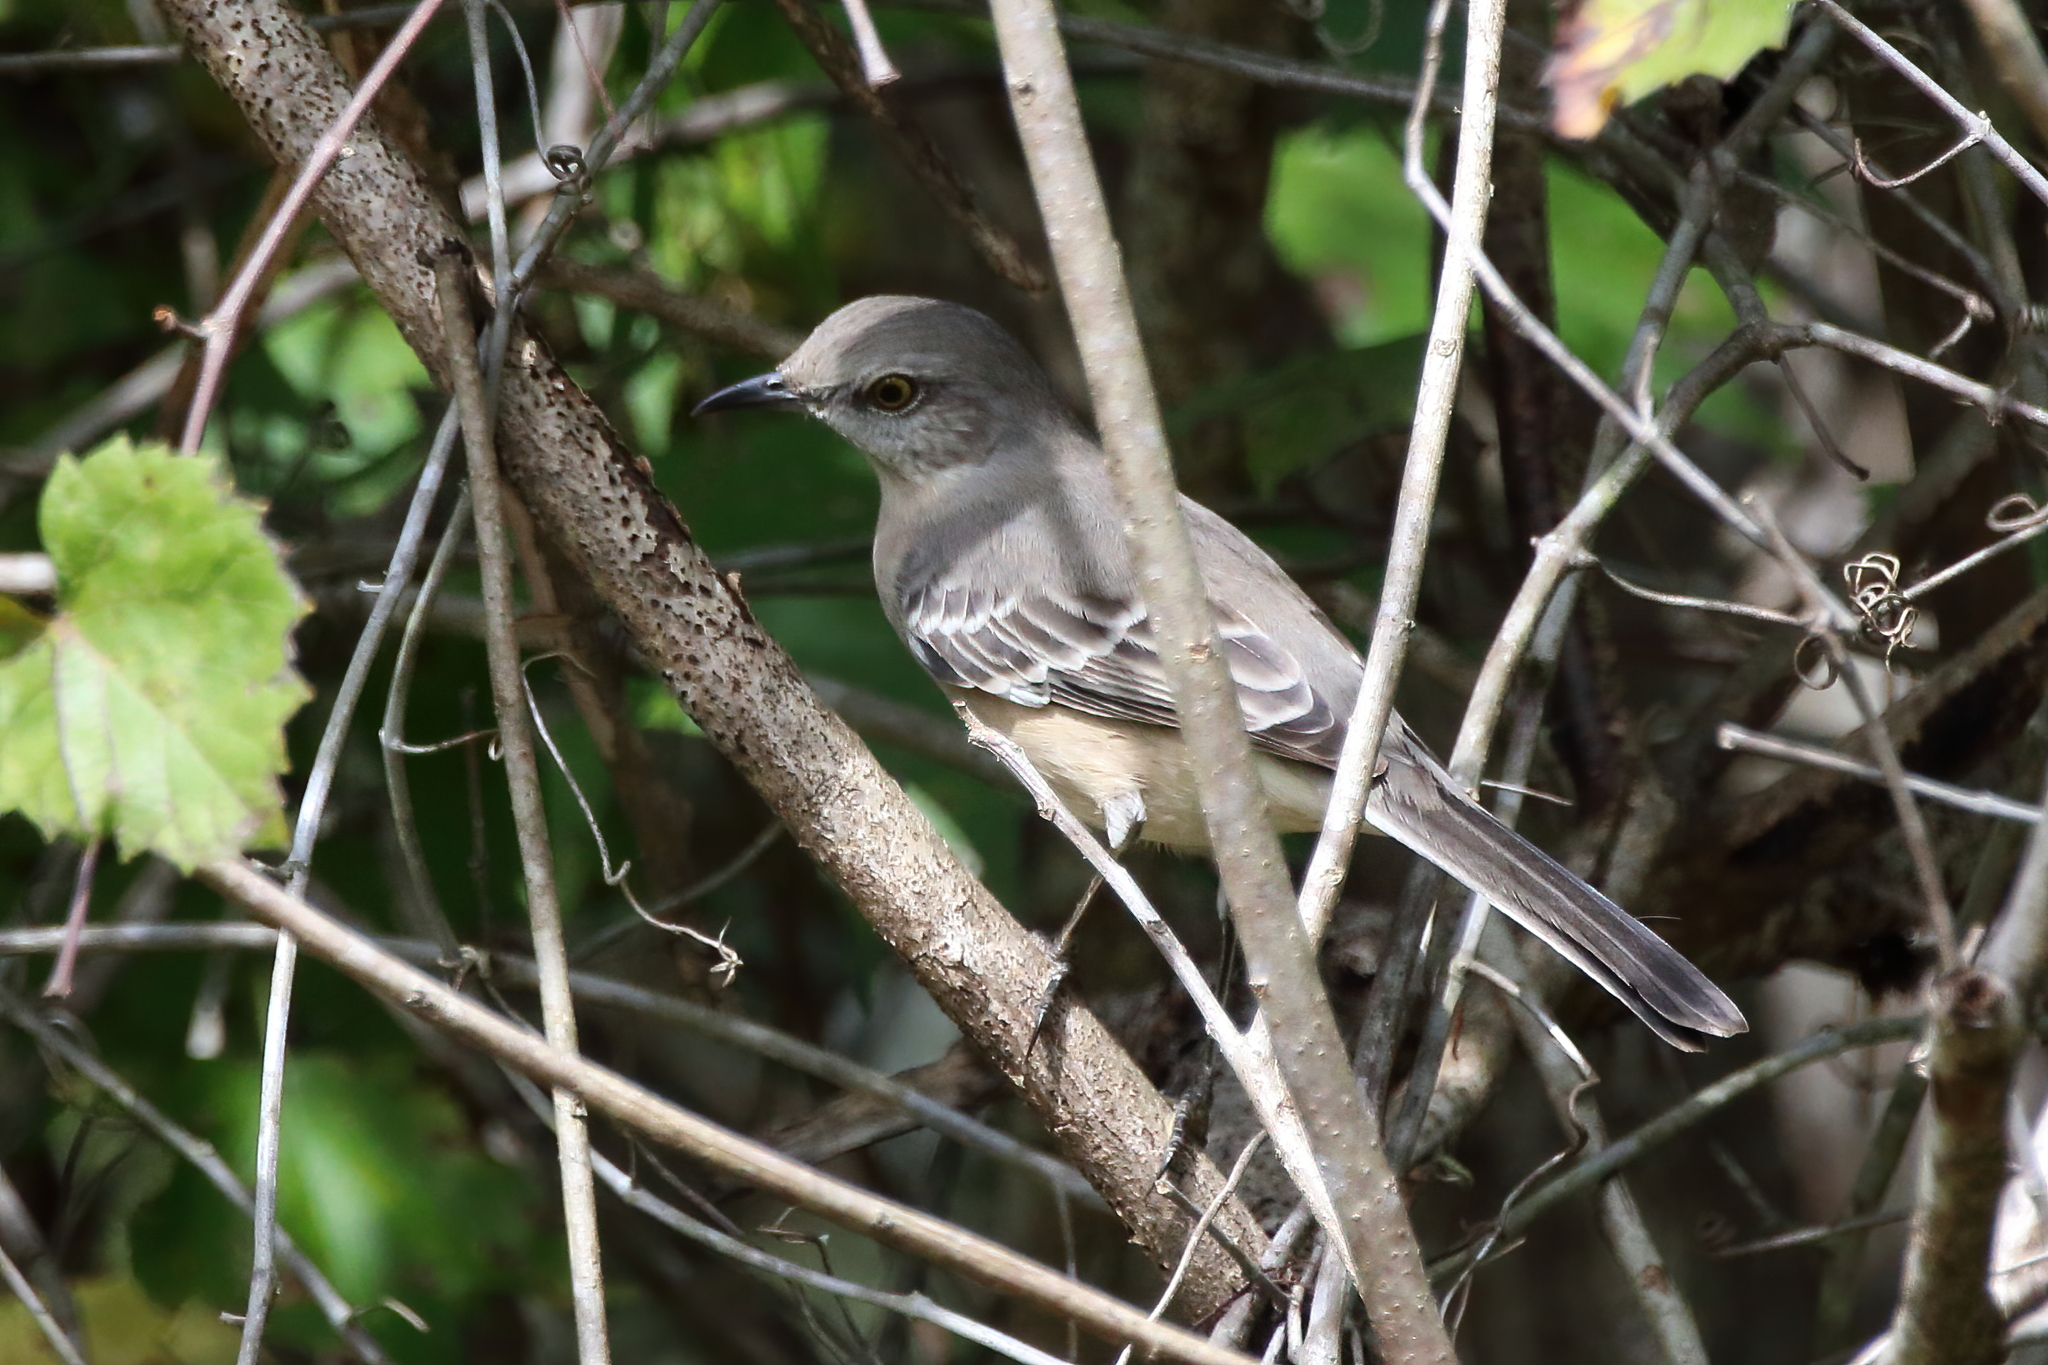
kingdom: Animalia
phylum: Chordata
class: Aves
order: Passeriformes
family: Mimidae
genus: Mimus
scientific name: Mimus polyglottos
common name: Northern mockingbird
